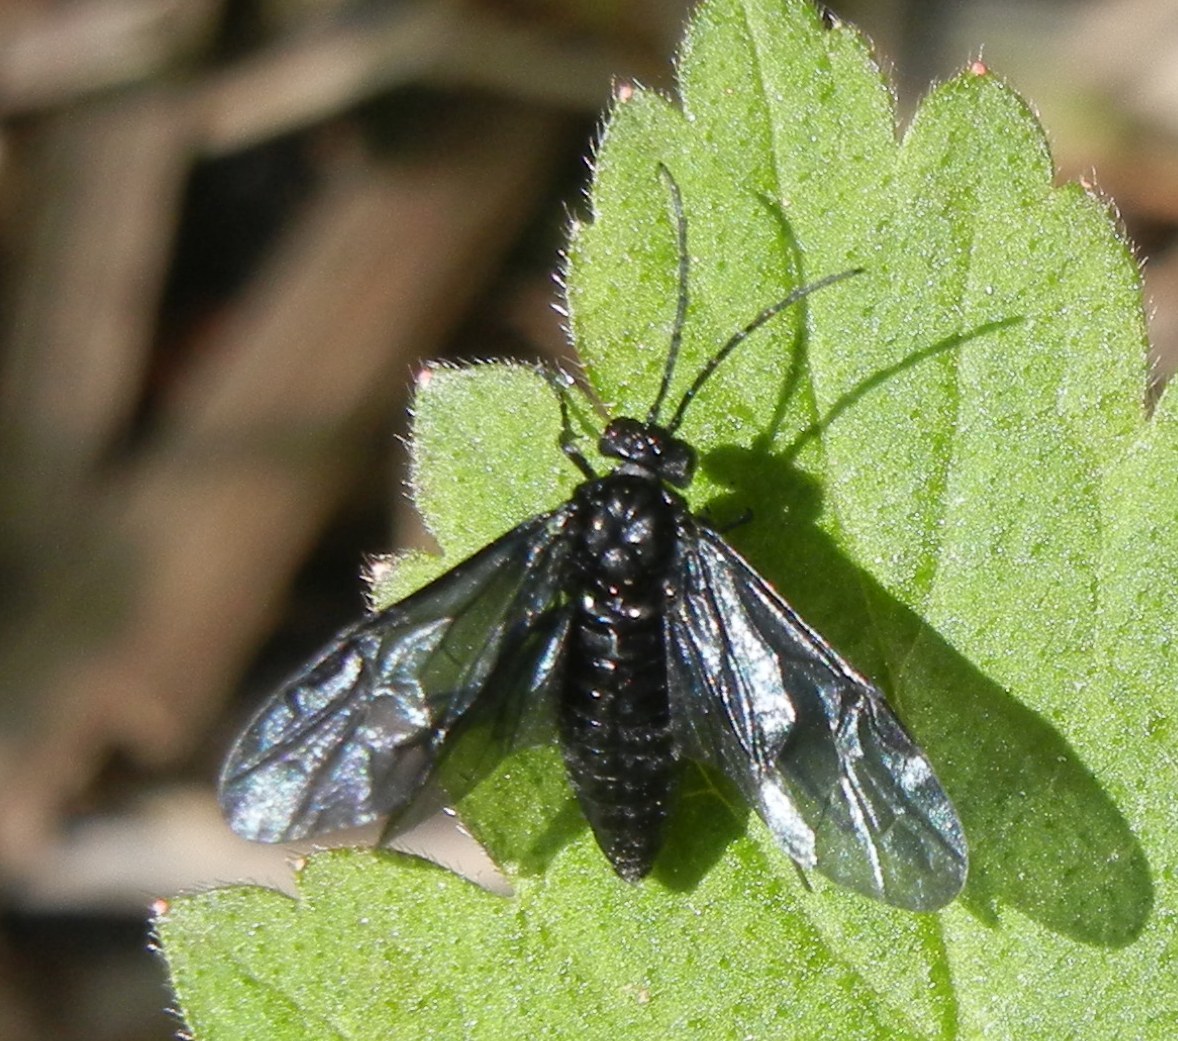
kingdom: Animalia
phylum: Arthropoda
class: Insecta
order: Hymenoptera
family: Tenthredinidae
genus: Phymatocera
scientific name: Phymatocera aterrima
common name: Solomon's-seal sawfly
